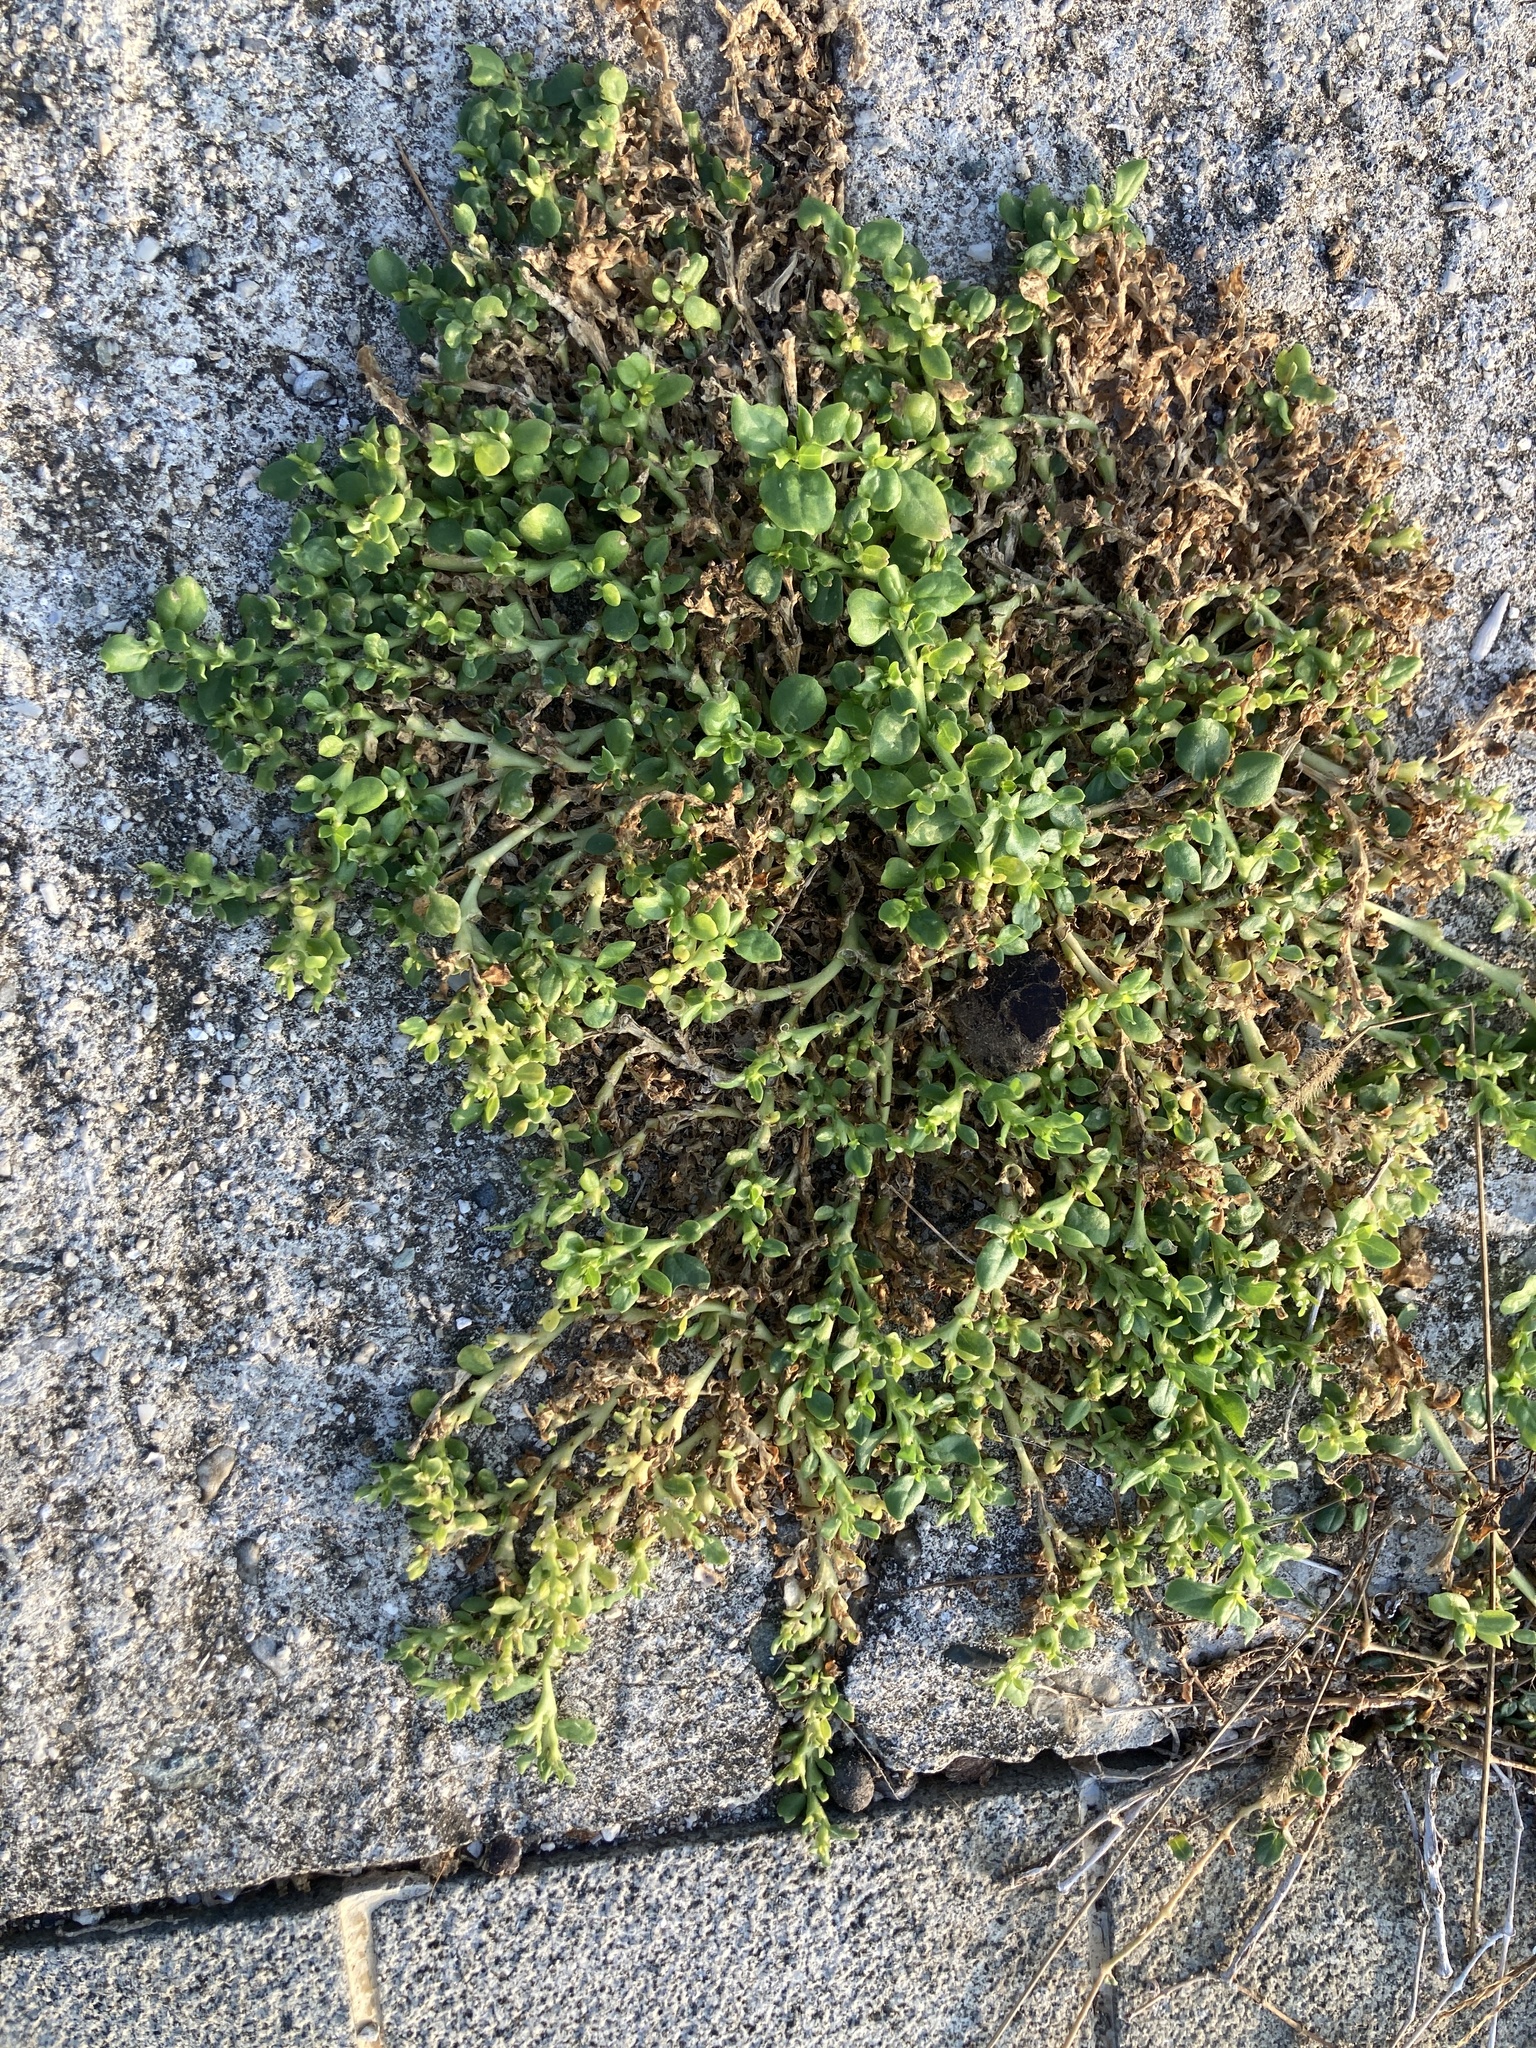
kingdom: Plantae
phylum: Tracheophyta
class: Magnoliopsida
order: Caryophyllales
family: Aizoaceae
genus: Trianthema
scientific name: Trianthema portulacastrum
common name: Desert horsepurslane
